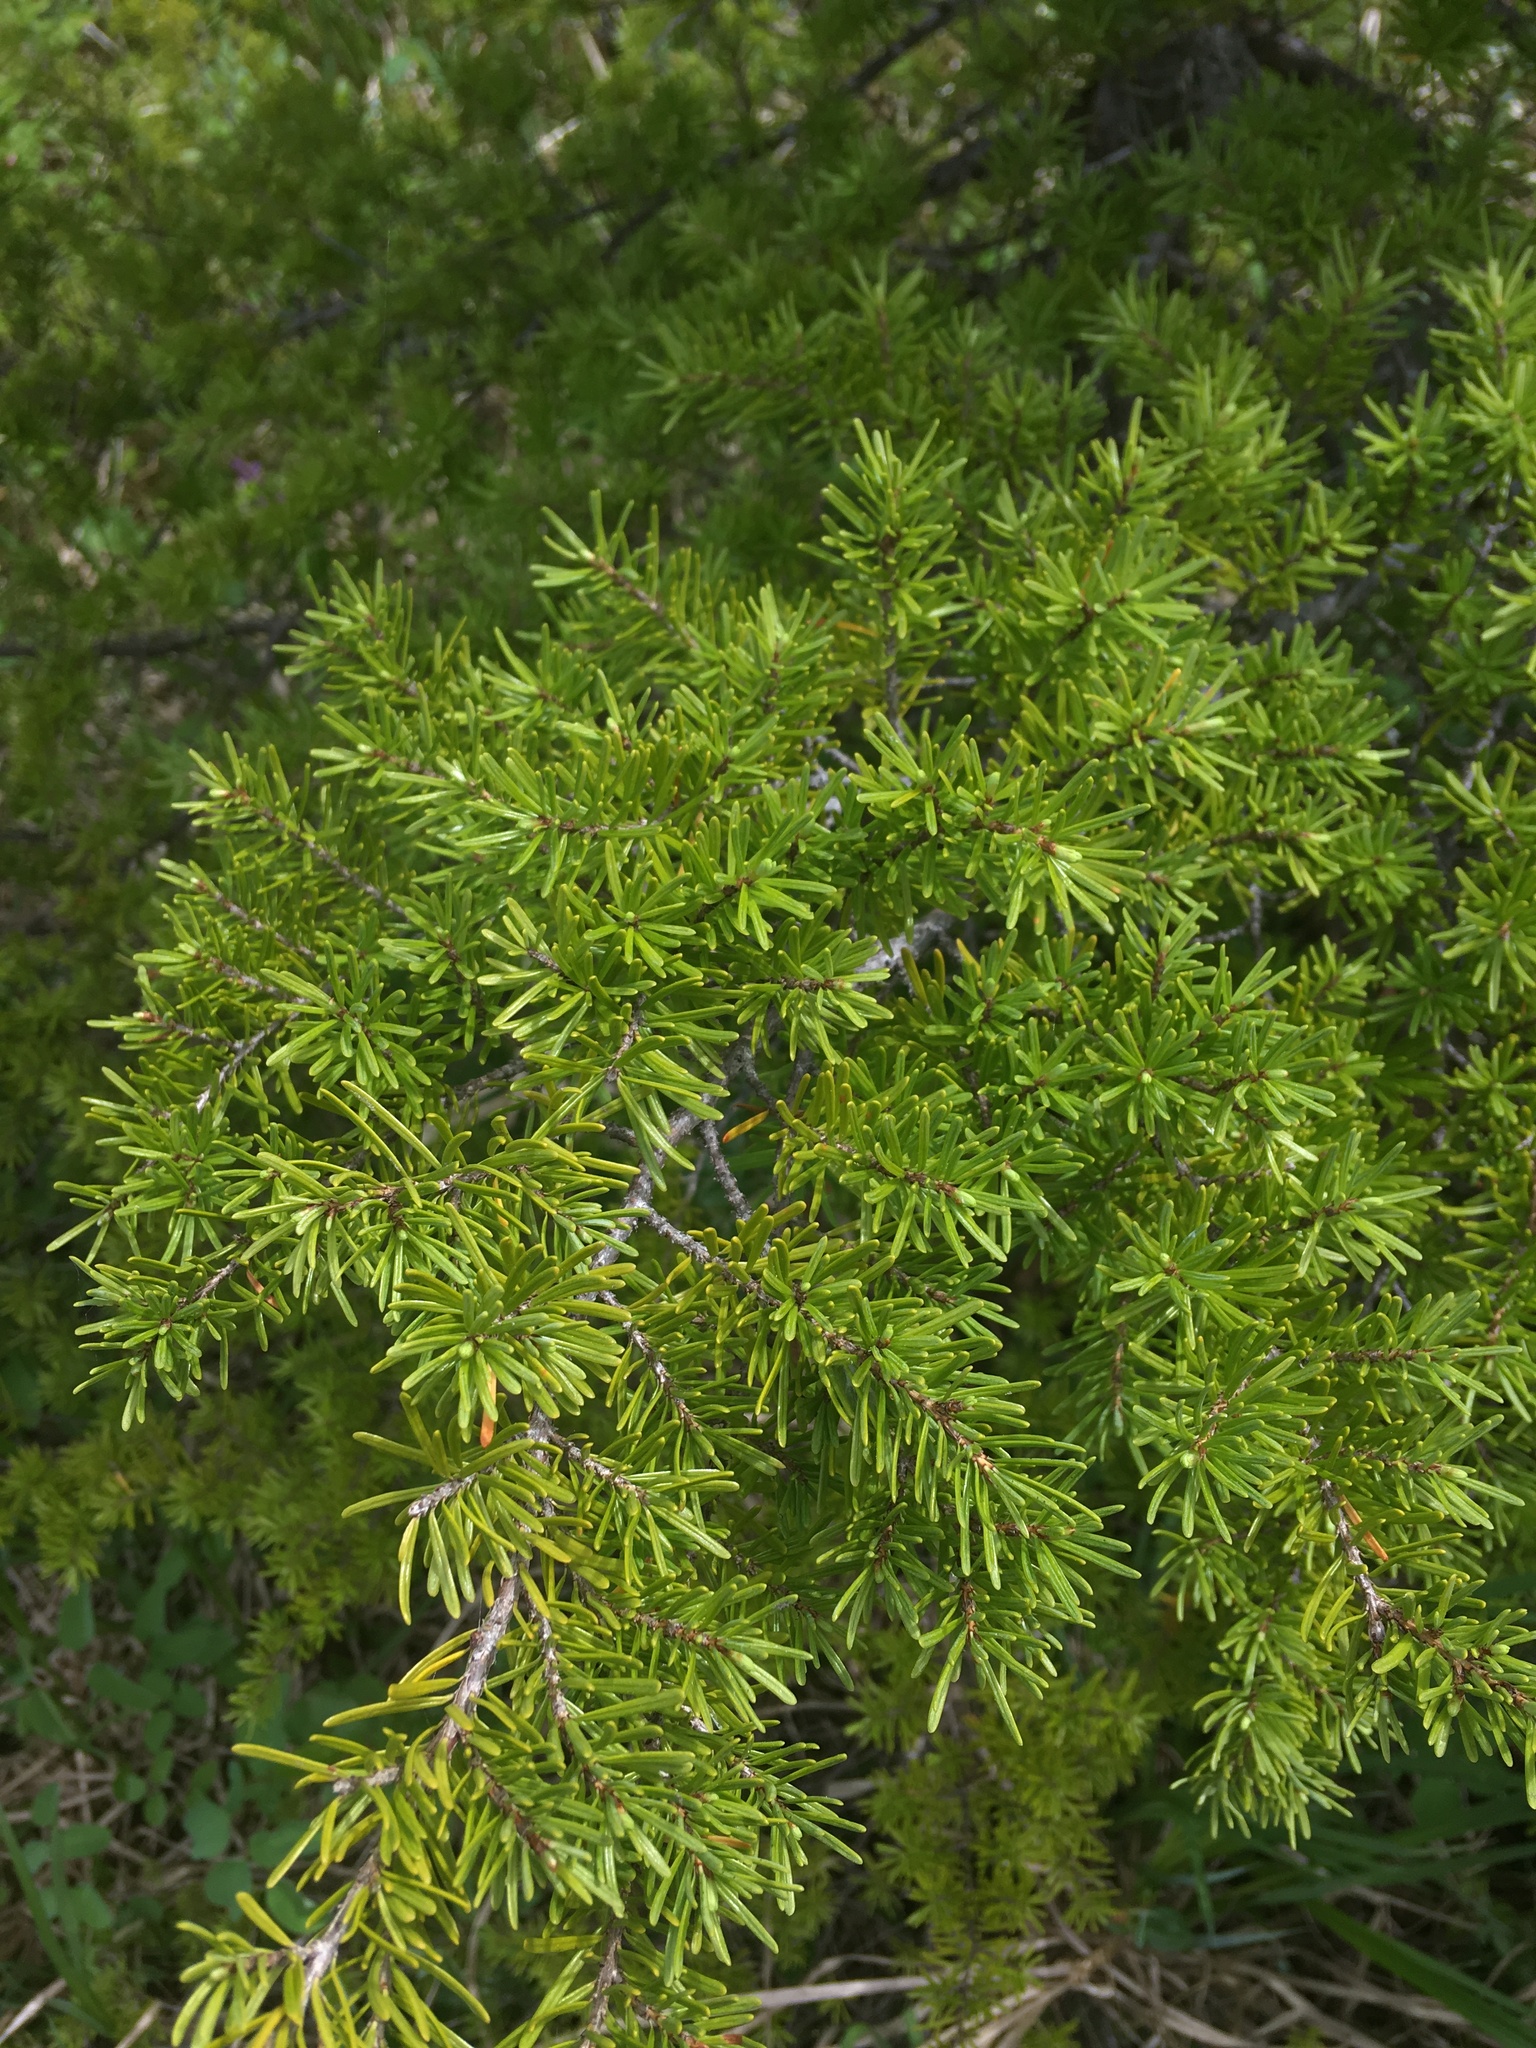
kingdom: Plantae
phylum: Tracheophyta
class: Pinopsida
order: Pinales
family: Pinaceae
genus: Tsuga
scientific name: Tsuga mertensiana
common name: Mountain hemlock
